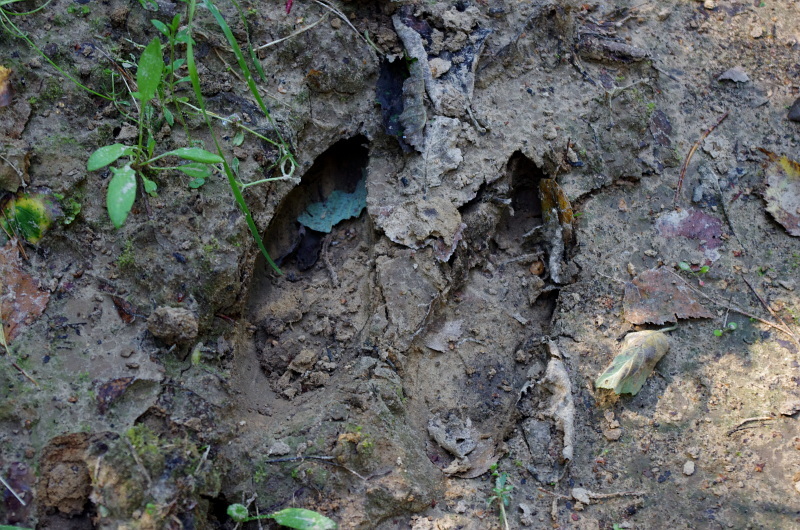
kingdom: Animalia
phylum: Chordata
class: Mammalia
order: Artiodactyla
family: Cervidae
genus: Alces
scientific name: Alces alces
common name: Moose
